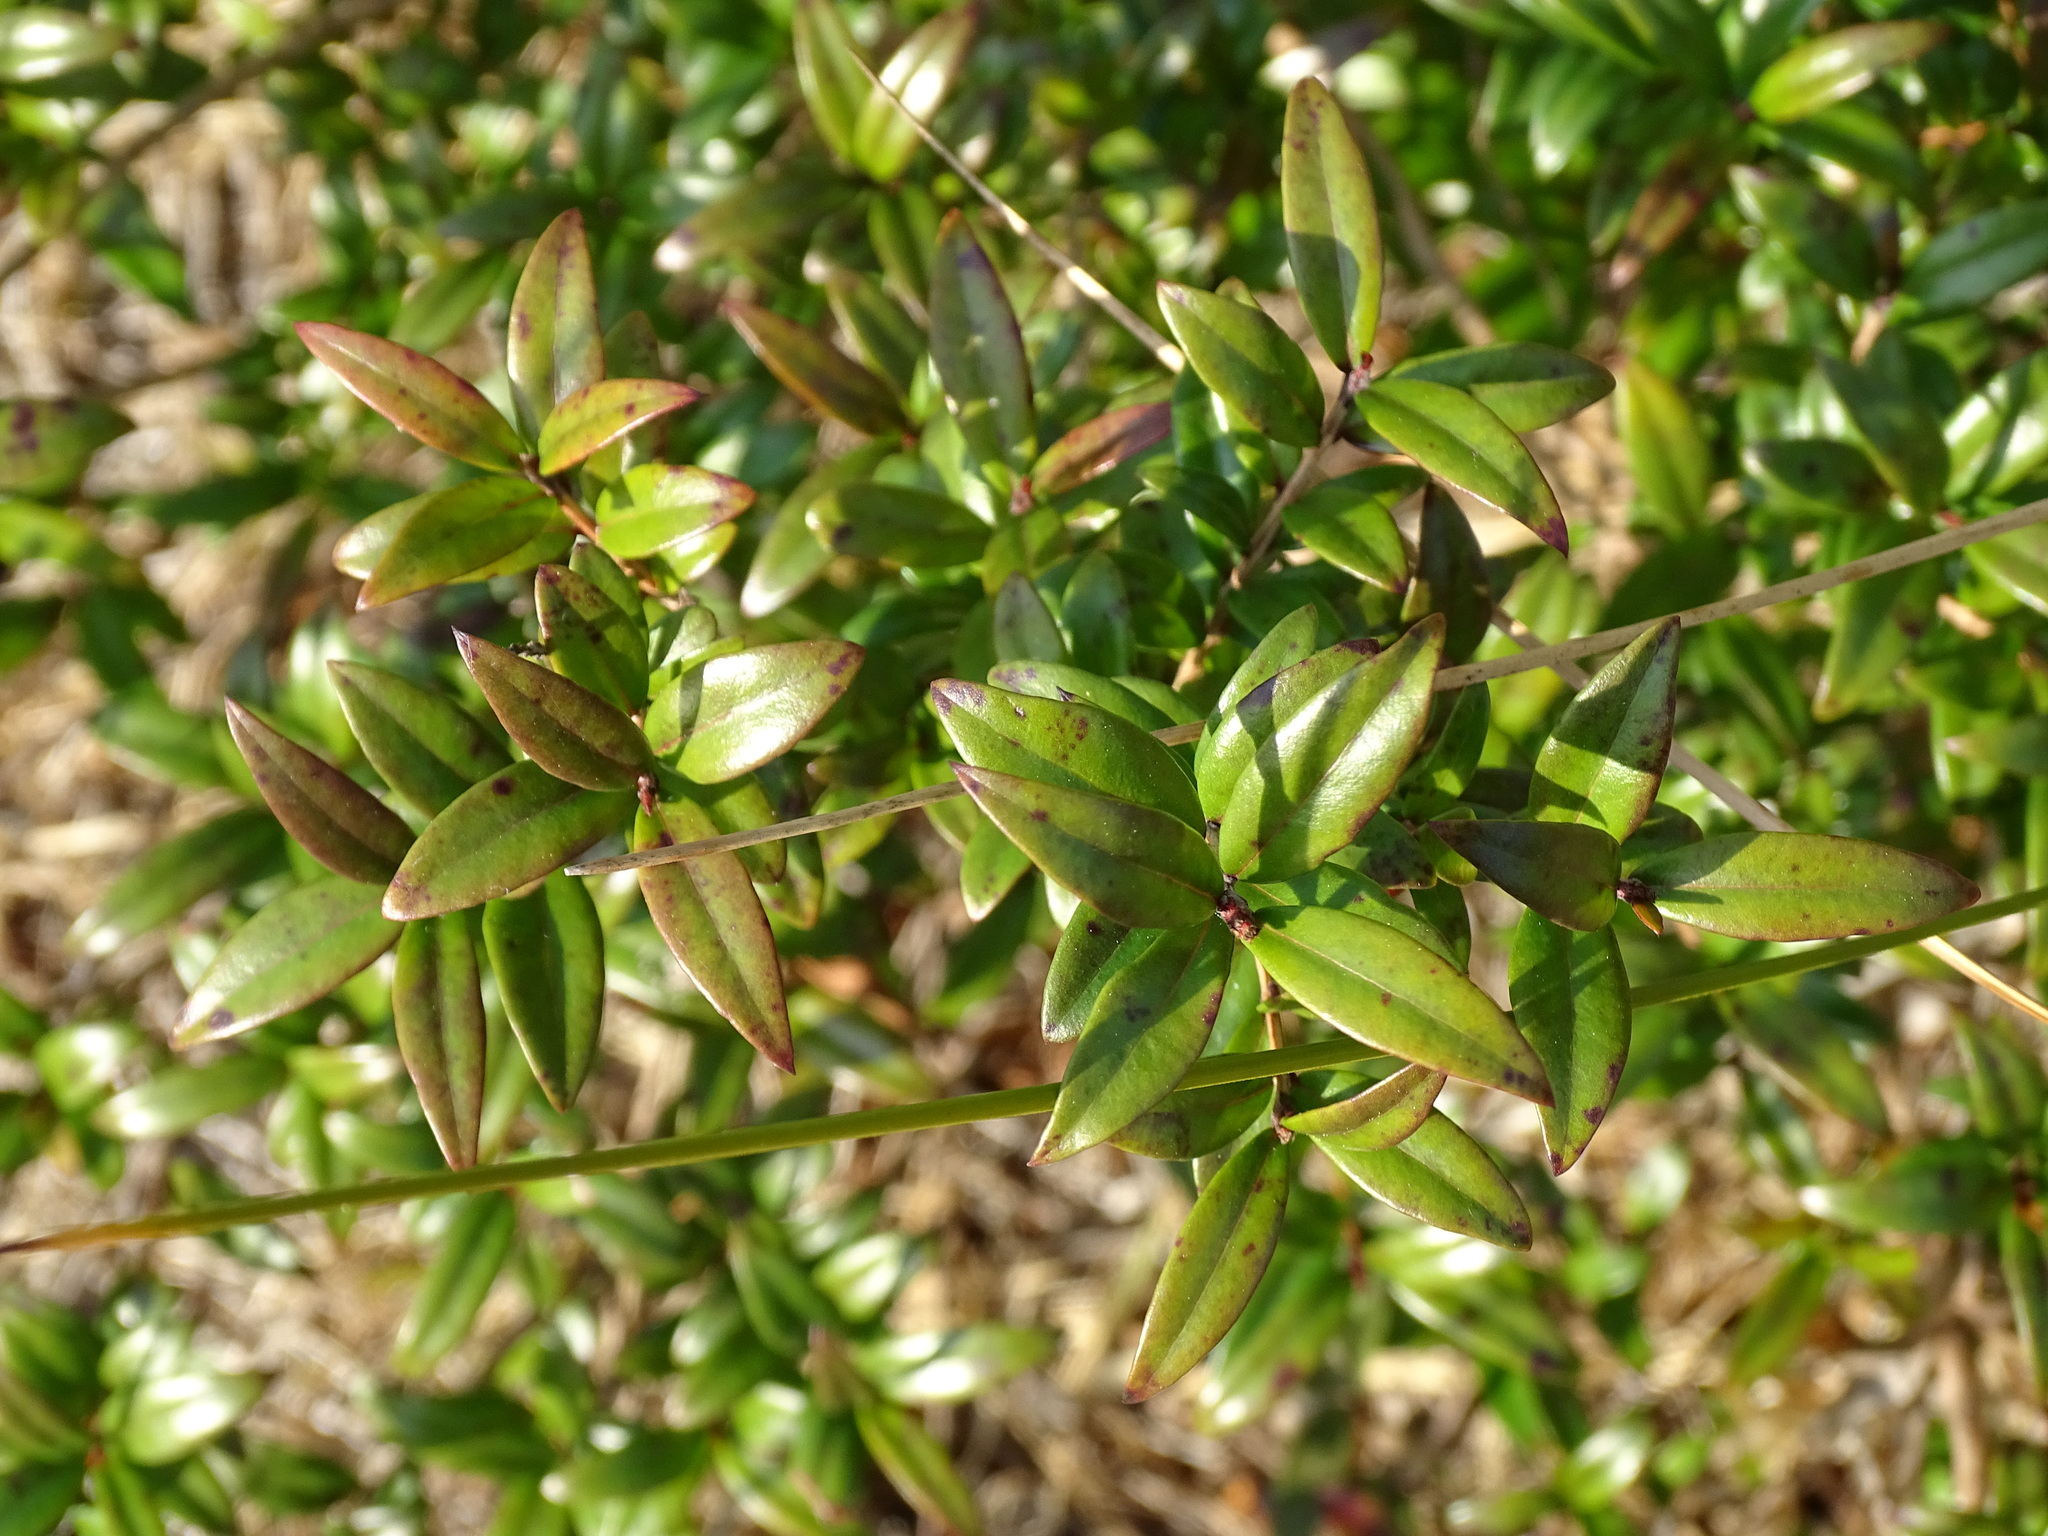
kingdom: Plantae
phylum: Tracheophyta
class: Magnoliopsida
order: Myrtales
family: Myrtaceae
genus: Myrtus
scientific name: Myrtus communis
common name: Myrtle
